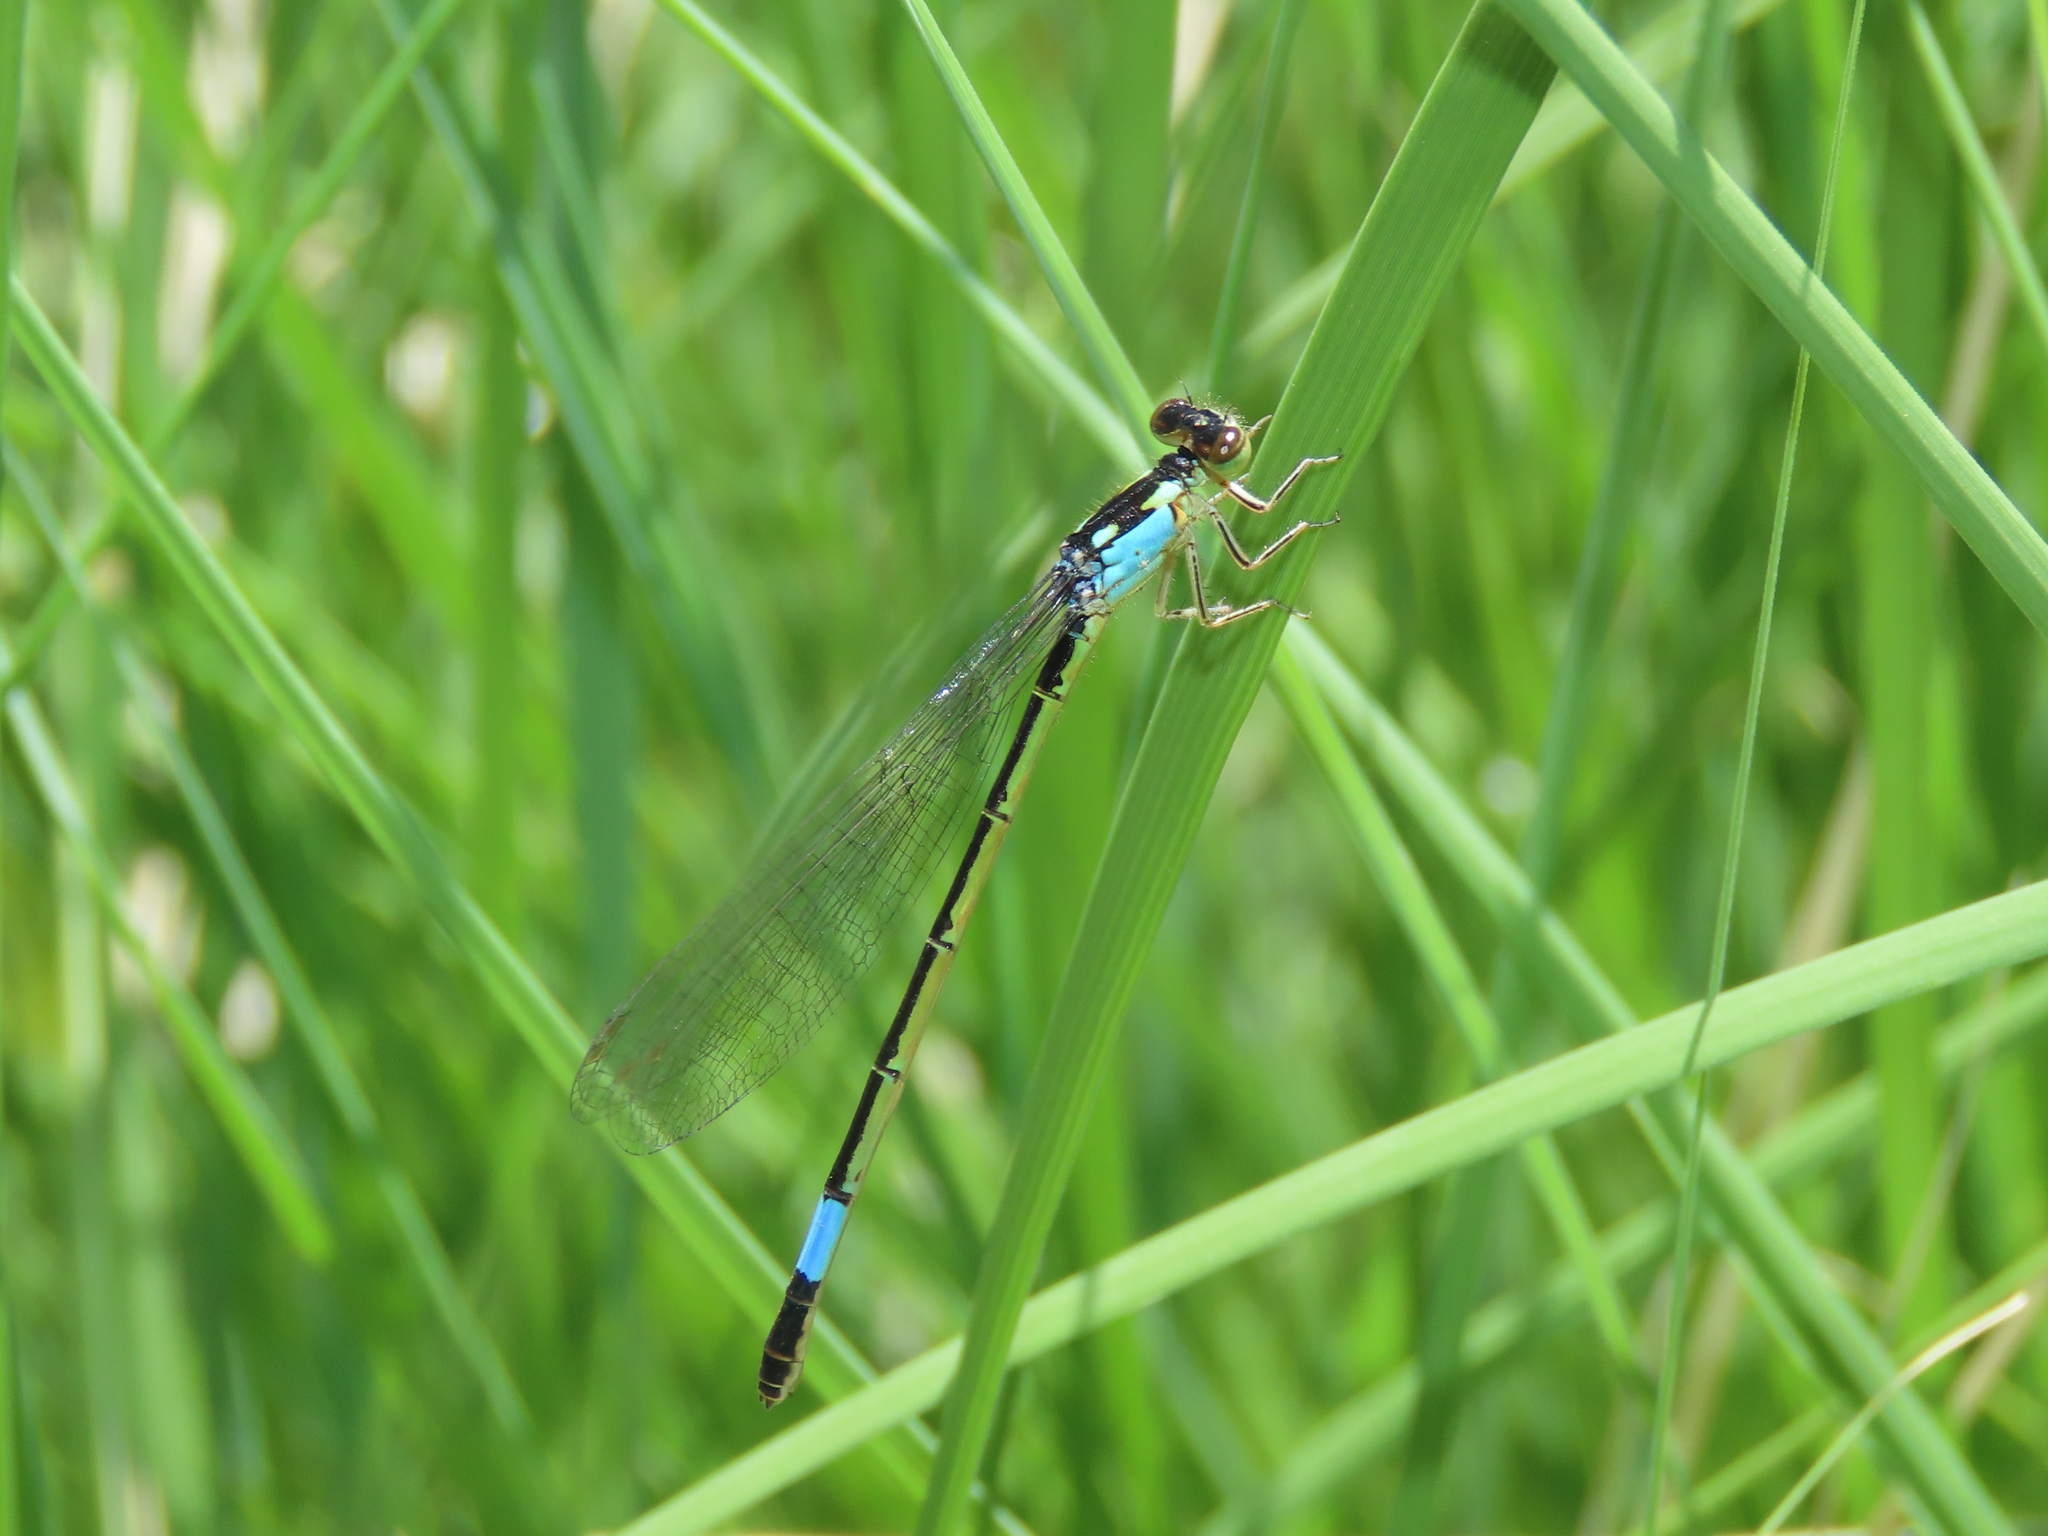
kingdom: Animalia
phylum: Arthropoda
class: Insecta
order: Odonata
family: Coenagrionidae
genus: Hesperagrion
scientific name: Hesperagrion heterodoxum
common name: Painted damsel
